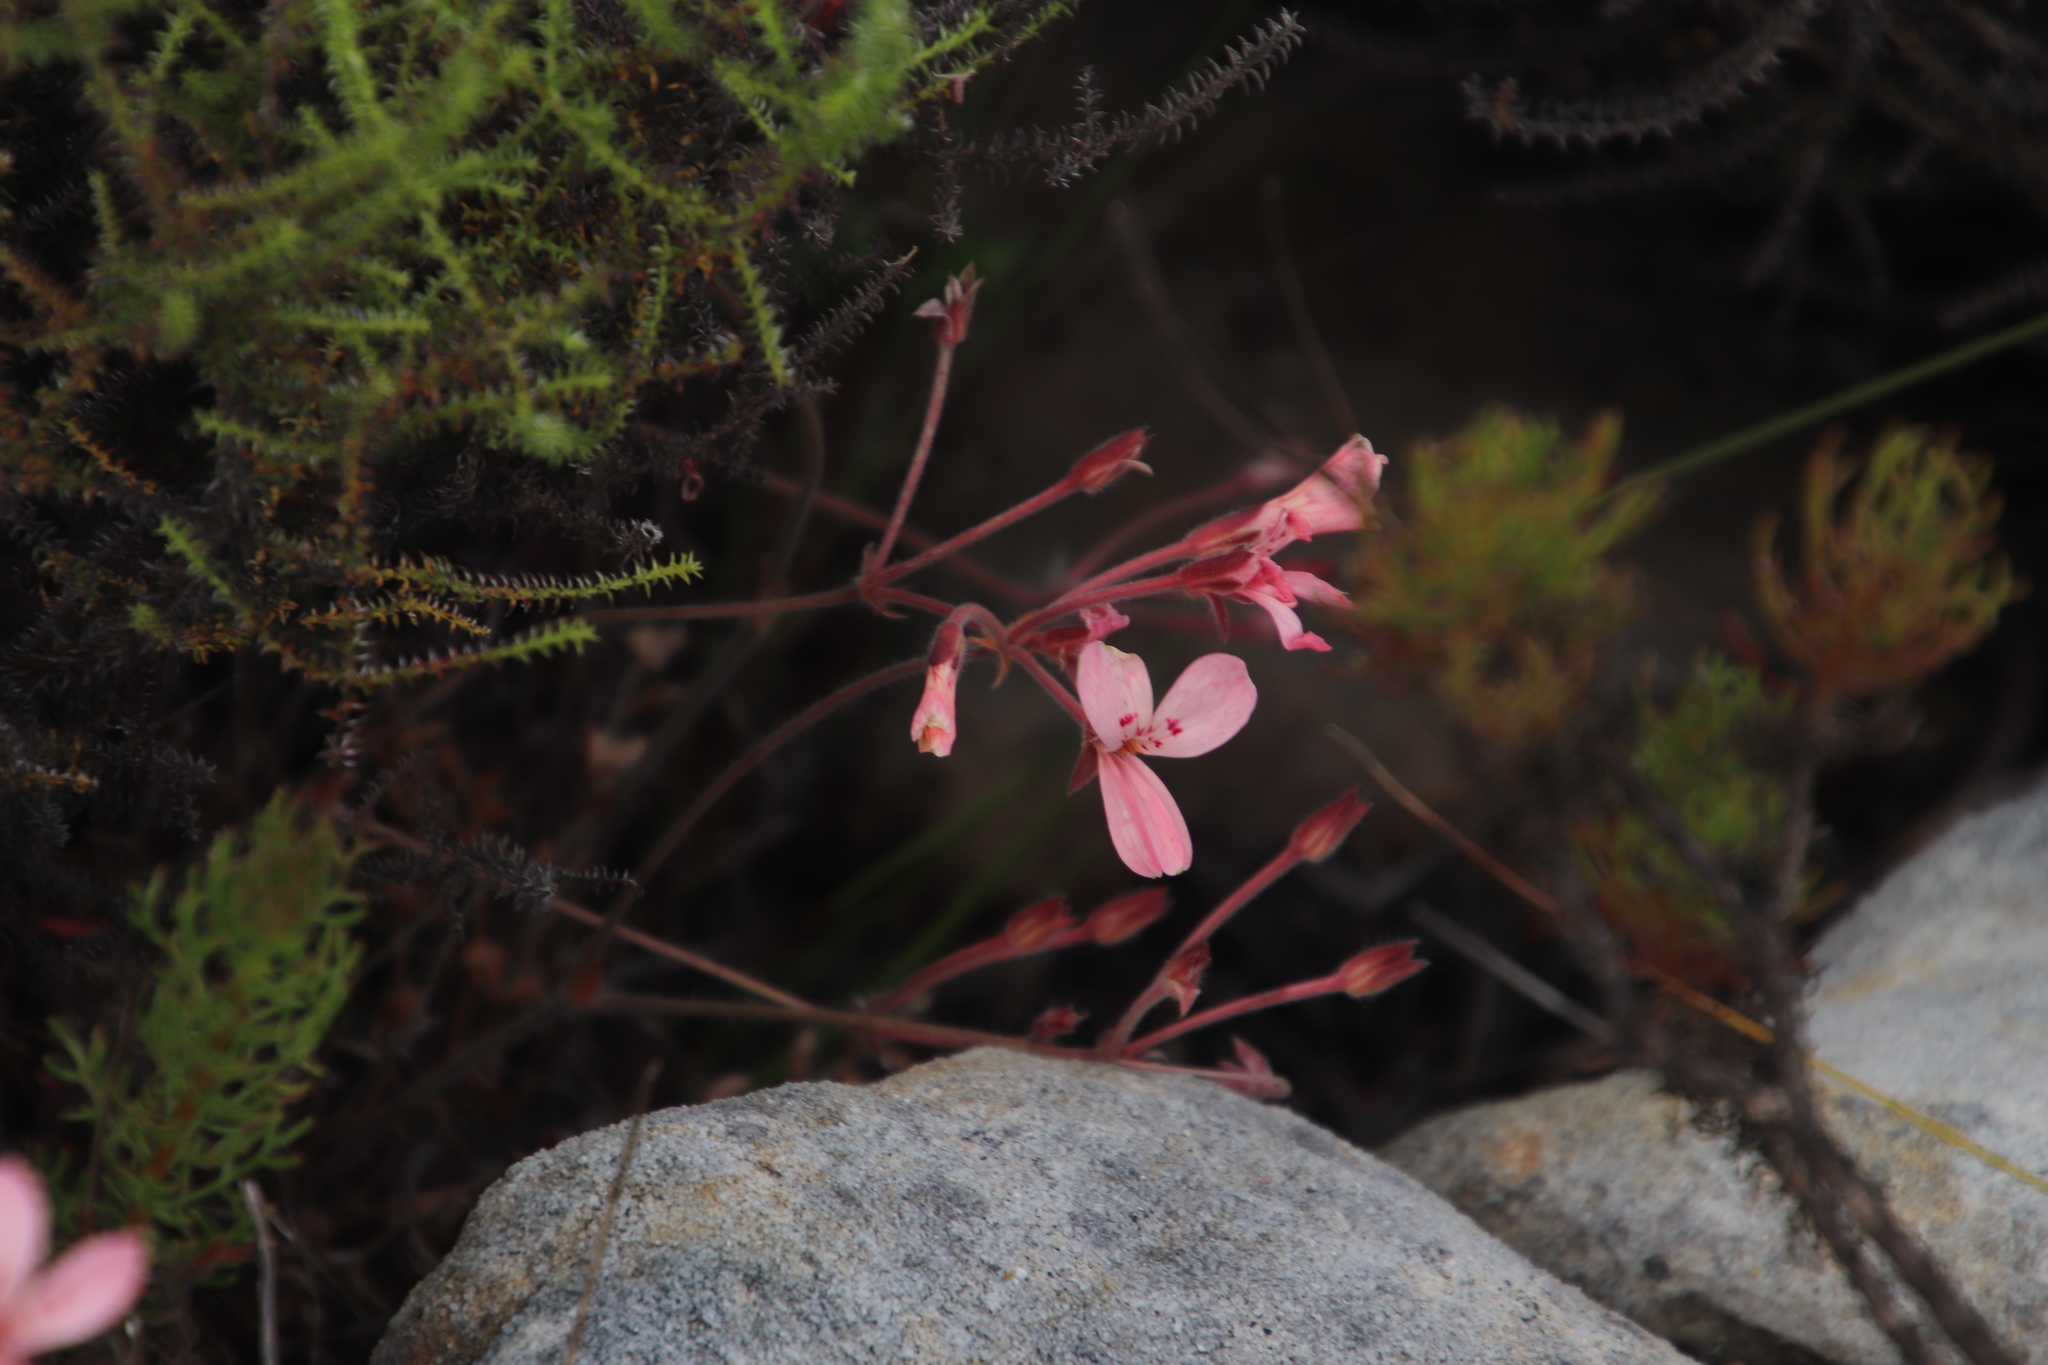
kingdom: Plantae
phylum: Tracheophyta
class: Magnoliopsida
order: Geraniales
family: Geraniaceae
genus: Pelargonium
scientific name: Pelargonium pinnatum
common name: Pinnated pelargonium
